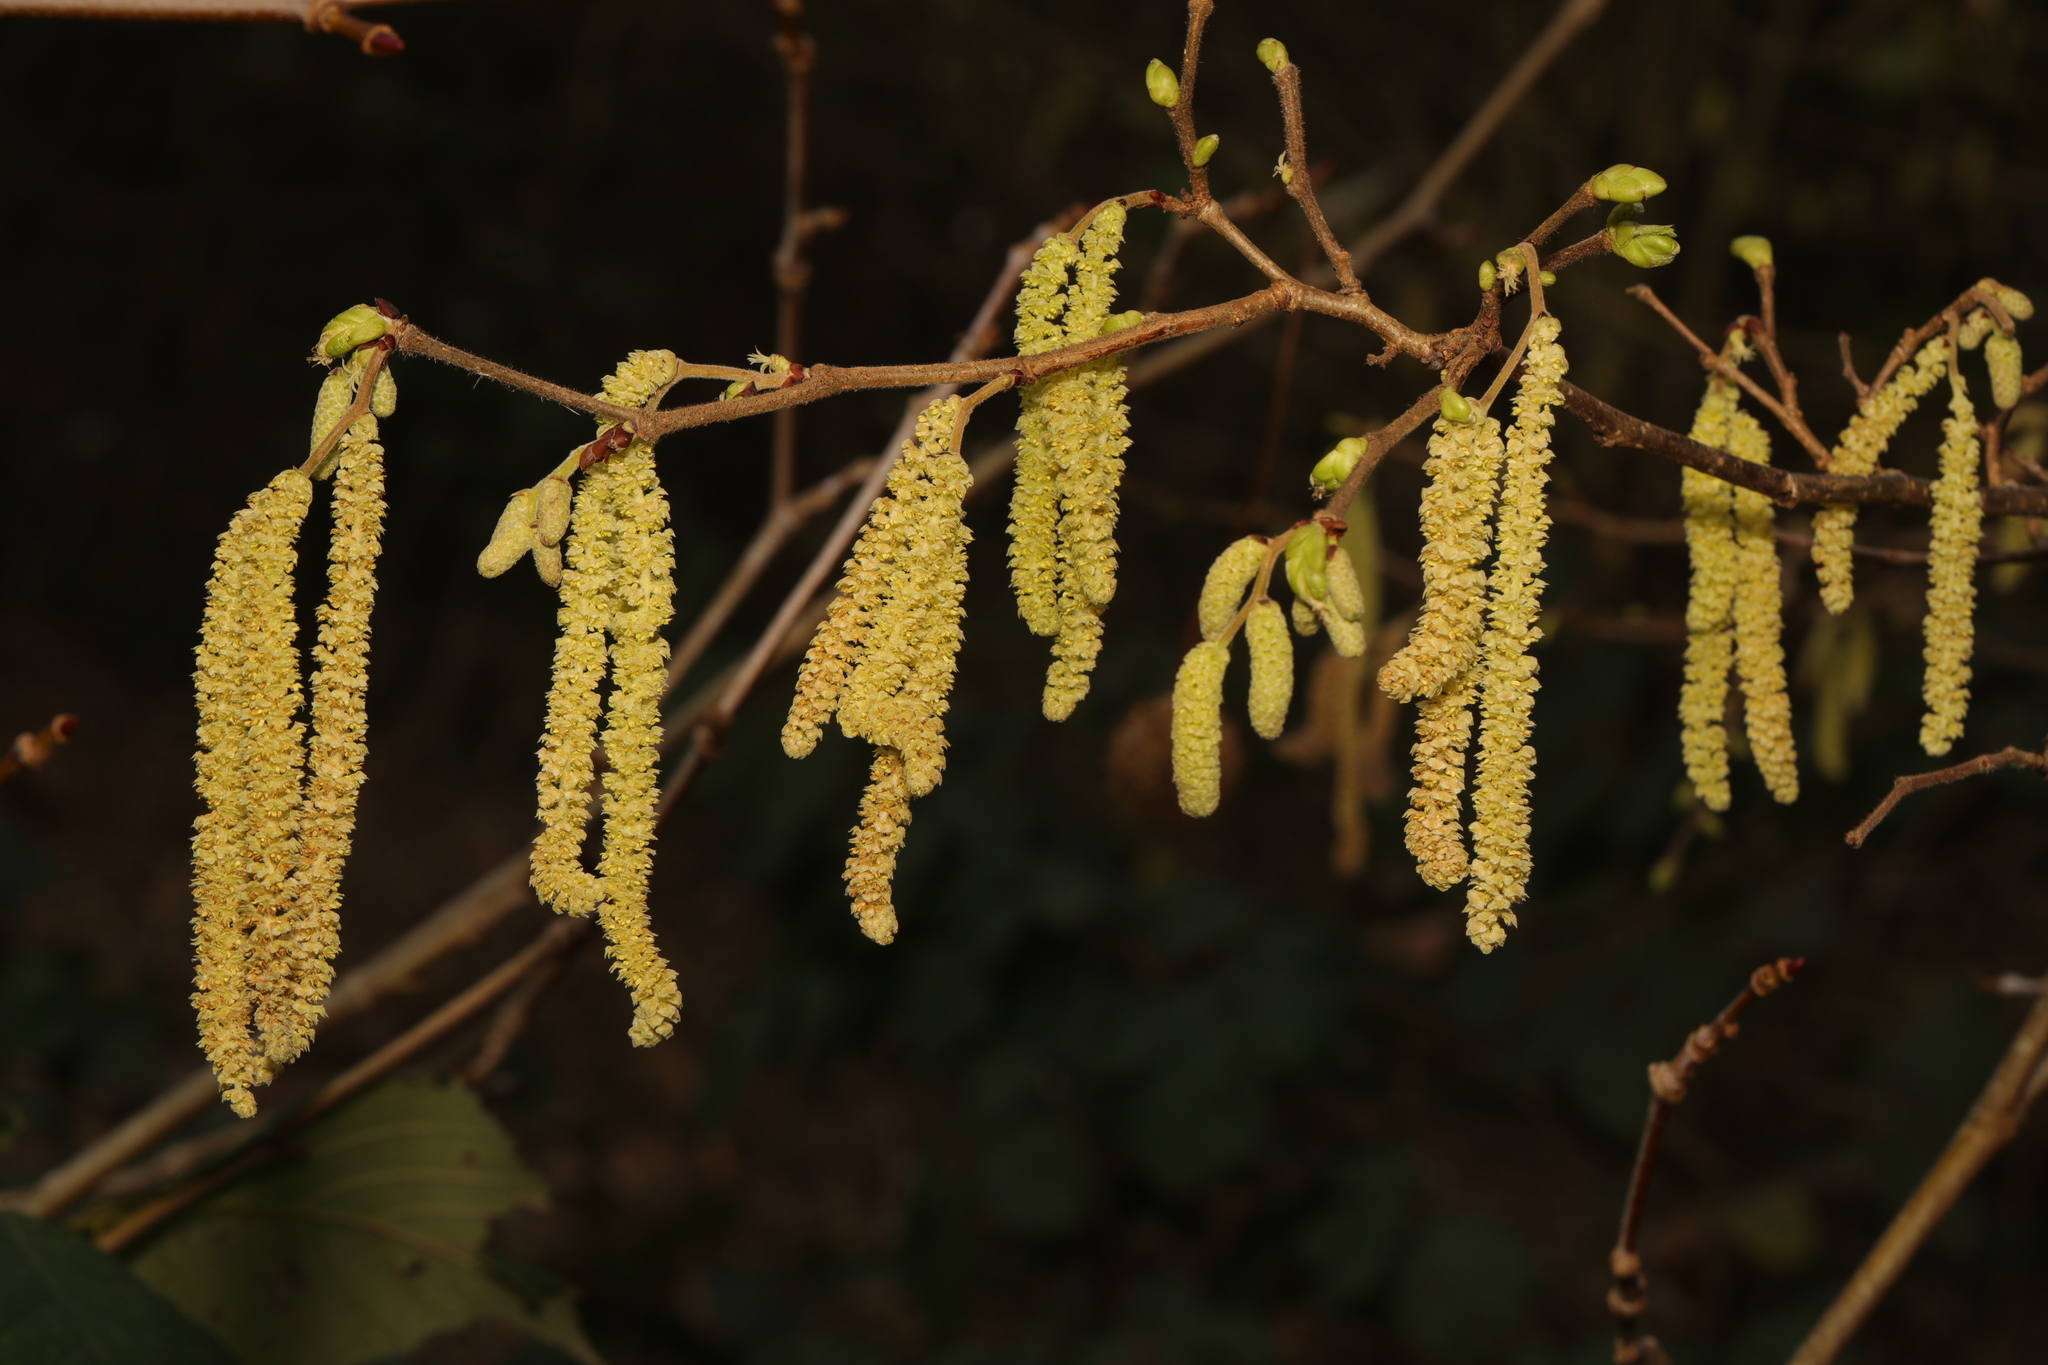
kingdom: Plantae
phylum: Tracheophyta
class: Magnoliopsida
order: Fagales
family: Betulaceae
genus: Corylus
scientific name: Corylus avellana
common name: European hazel
